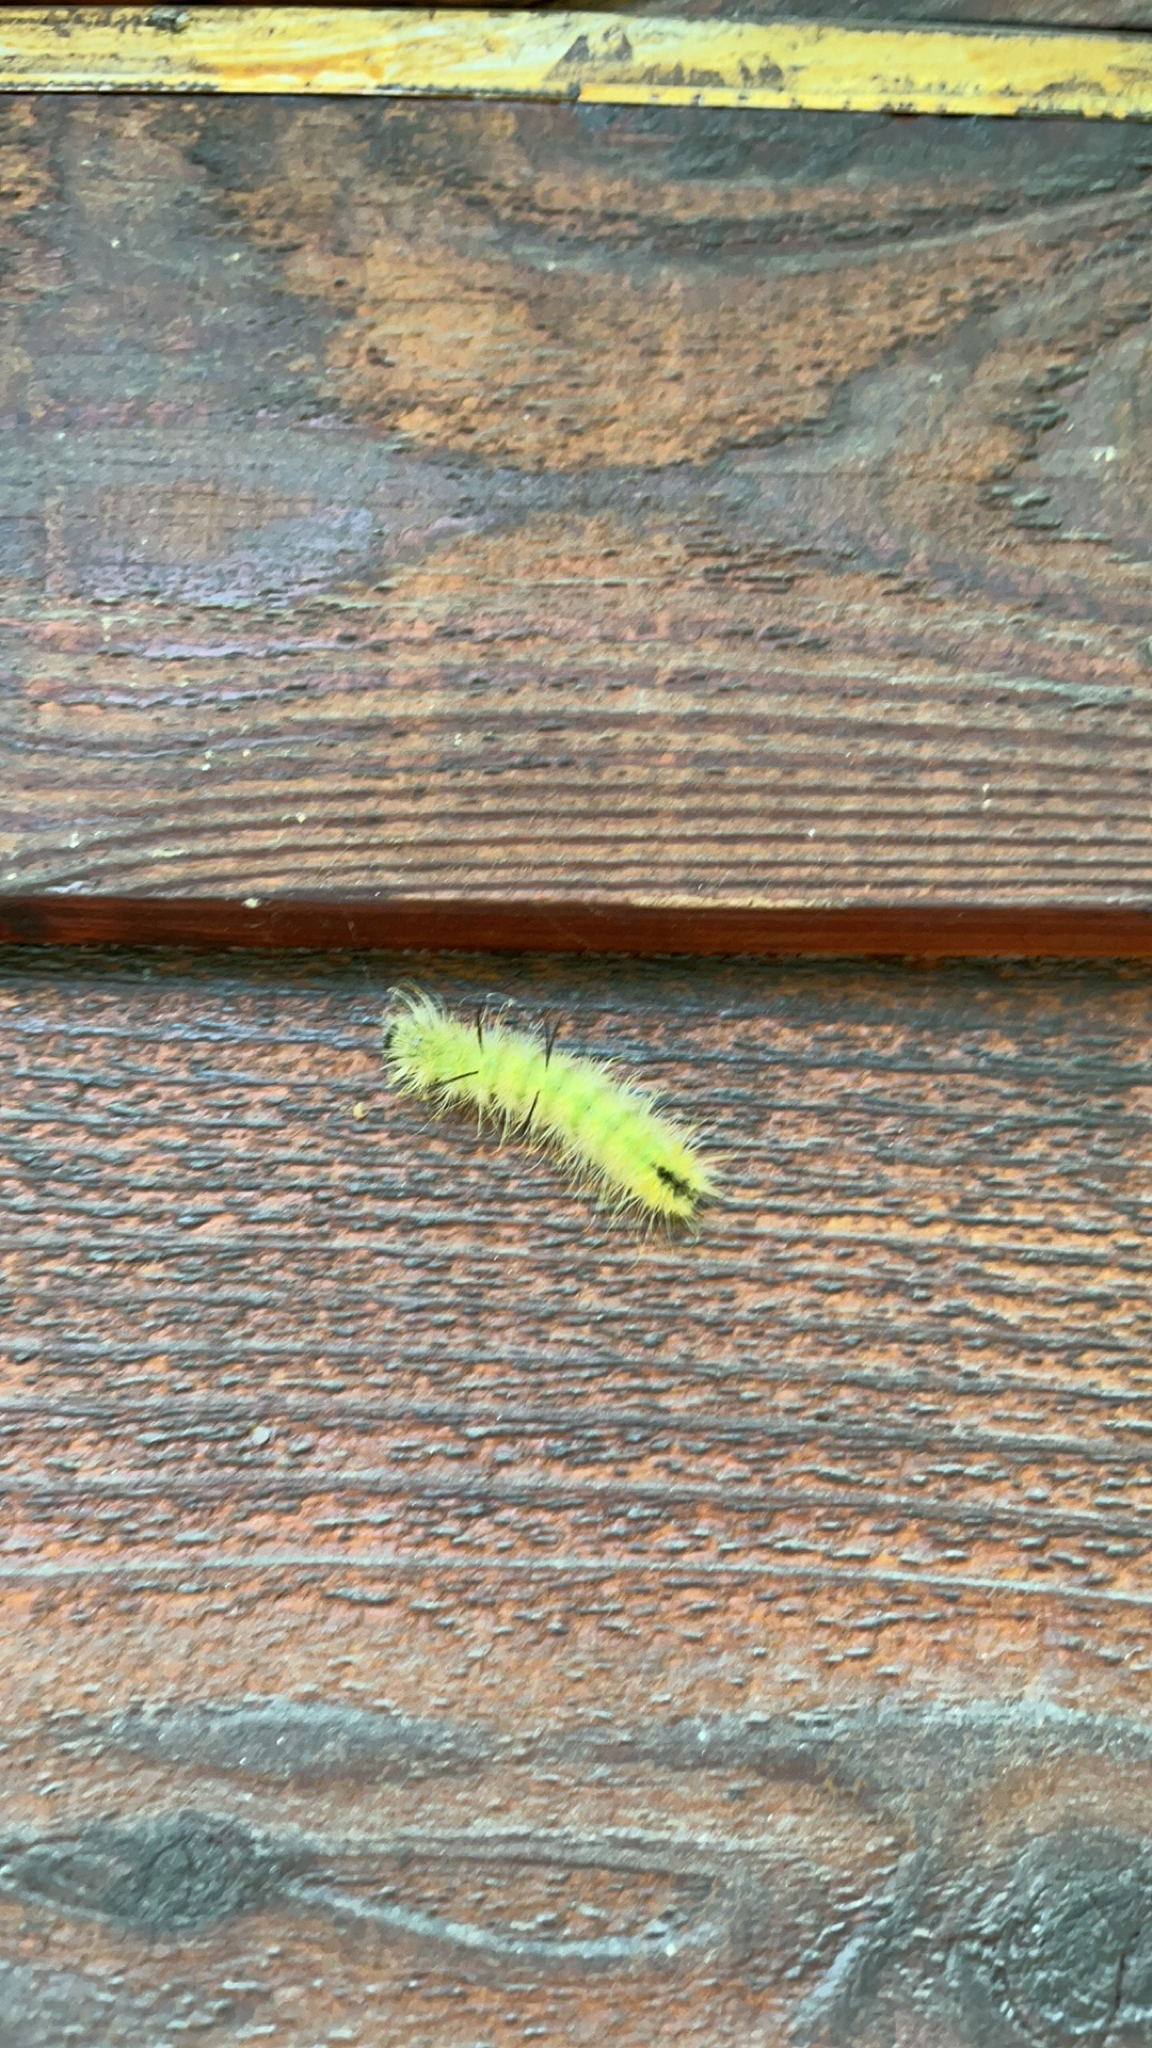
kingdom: Animalia
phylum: Arthropoda
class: Insecta
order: Lepidoptera
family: Noctuidae
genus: Acronicta
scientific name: Acronicta americana
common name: American dagger
